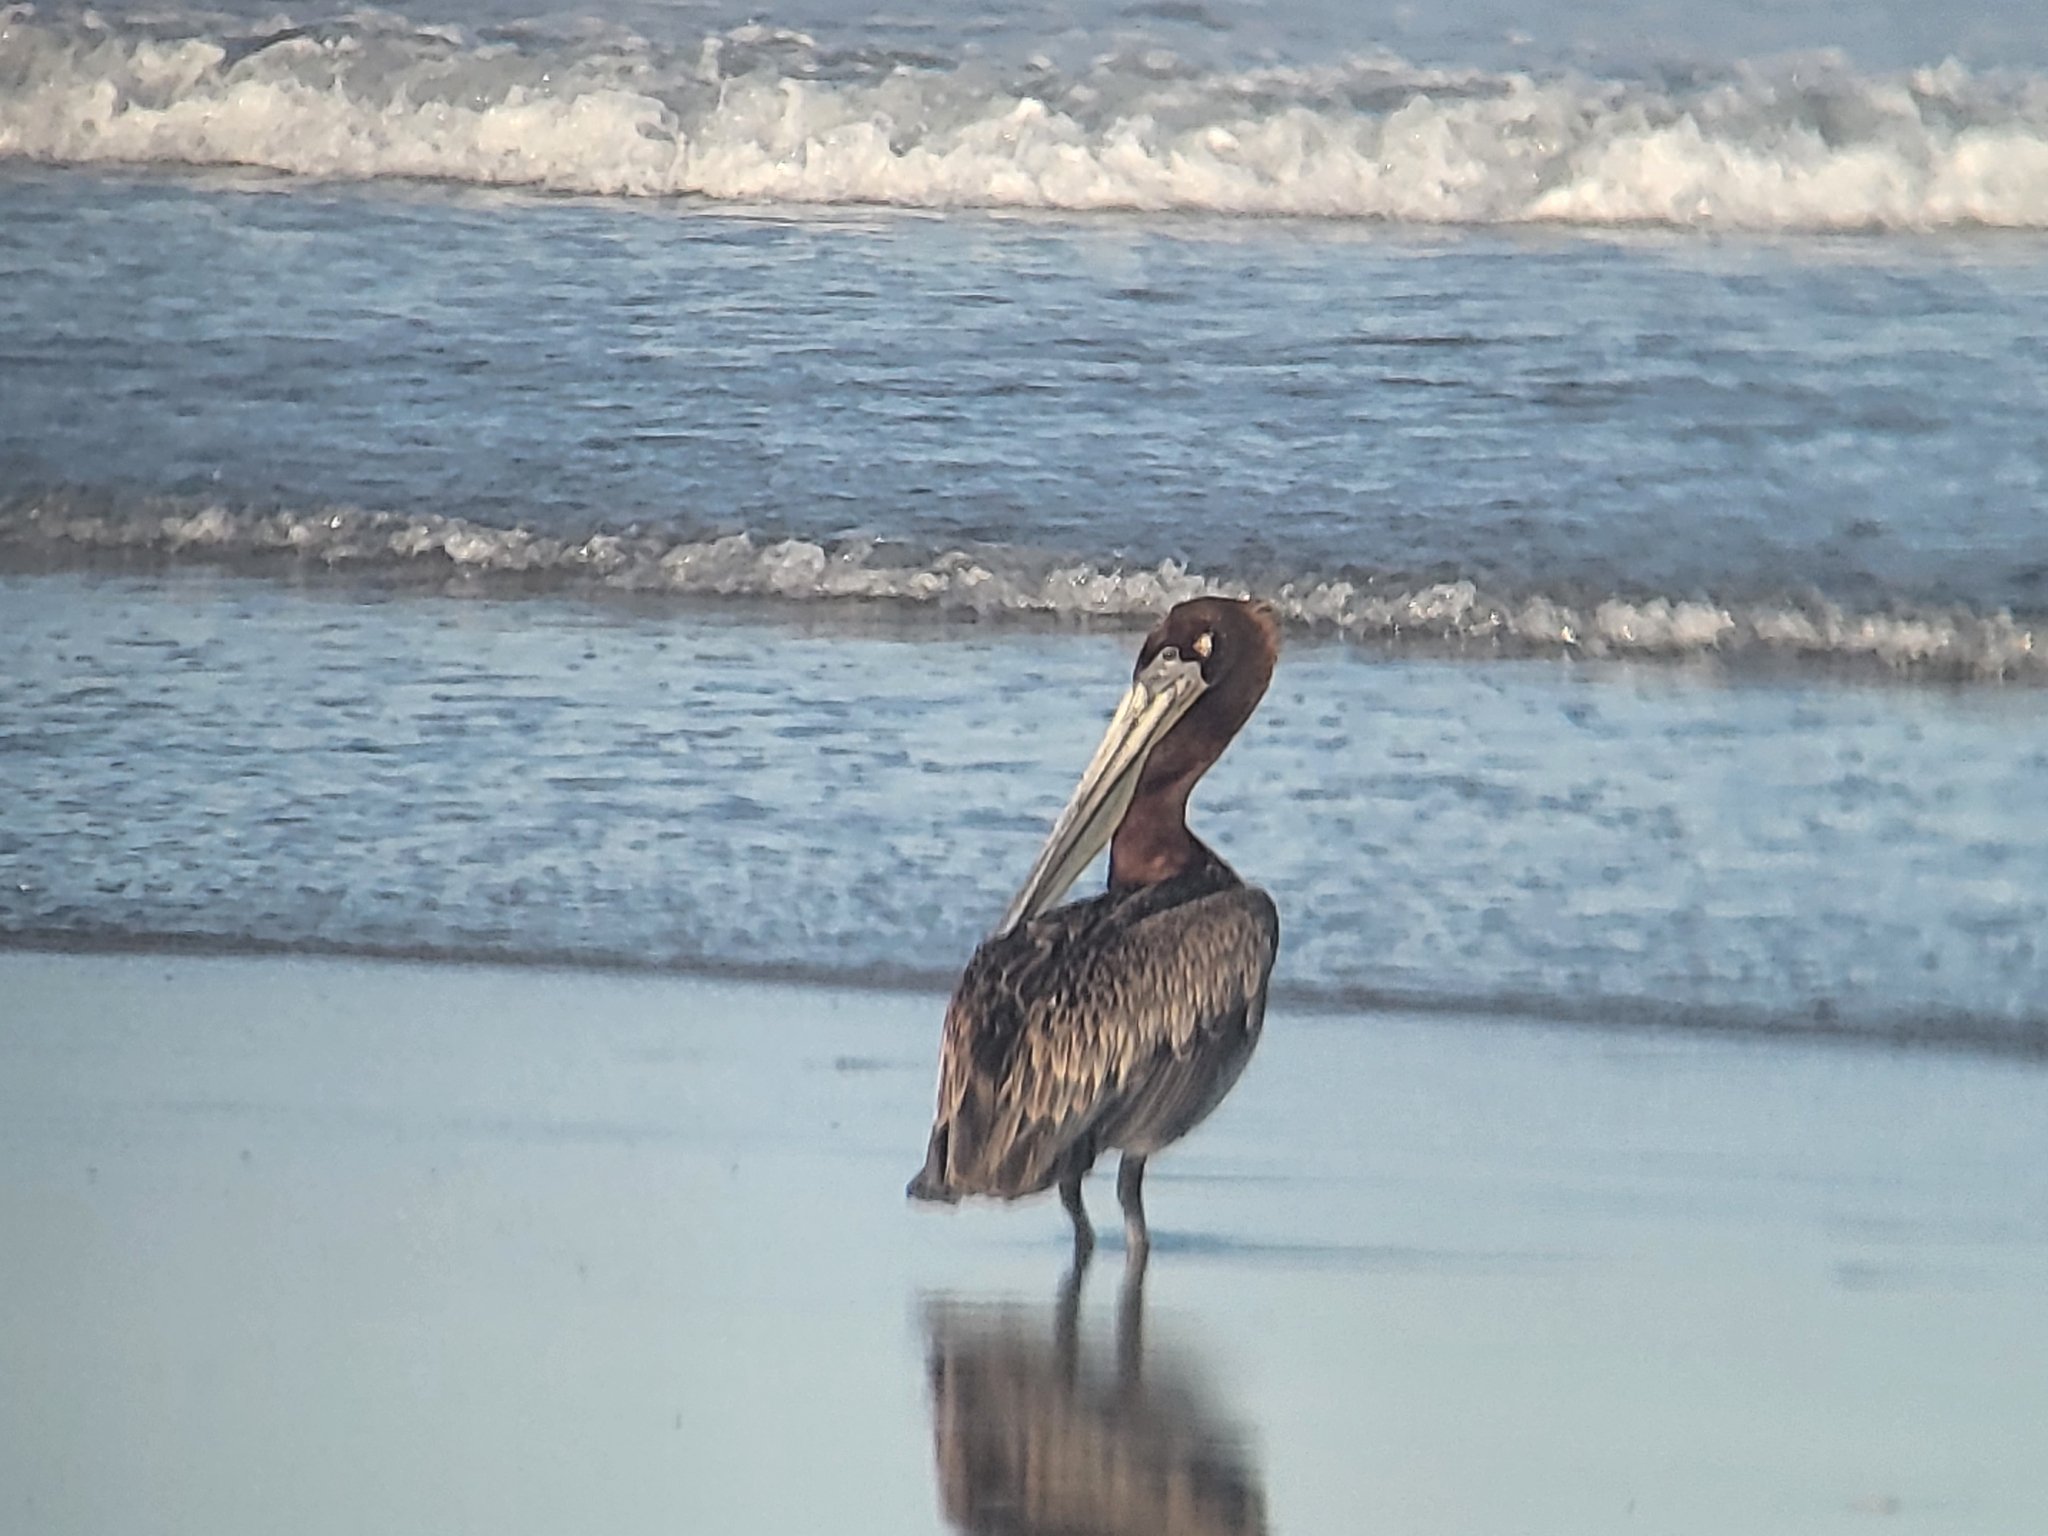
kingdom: Animalia
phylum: Chordata
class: Aves
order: Pelecaniformes
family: Pelecanidae
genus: Pelecanus
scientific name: Pelecanus occidentalis
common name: Brown pelican
